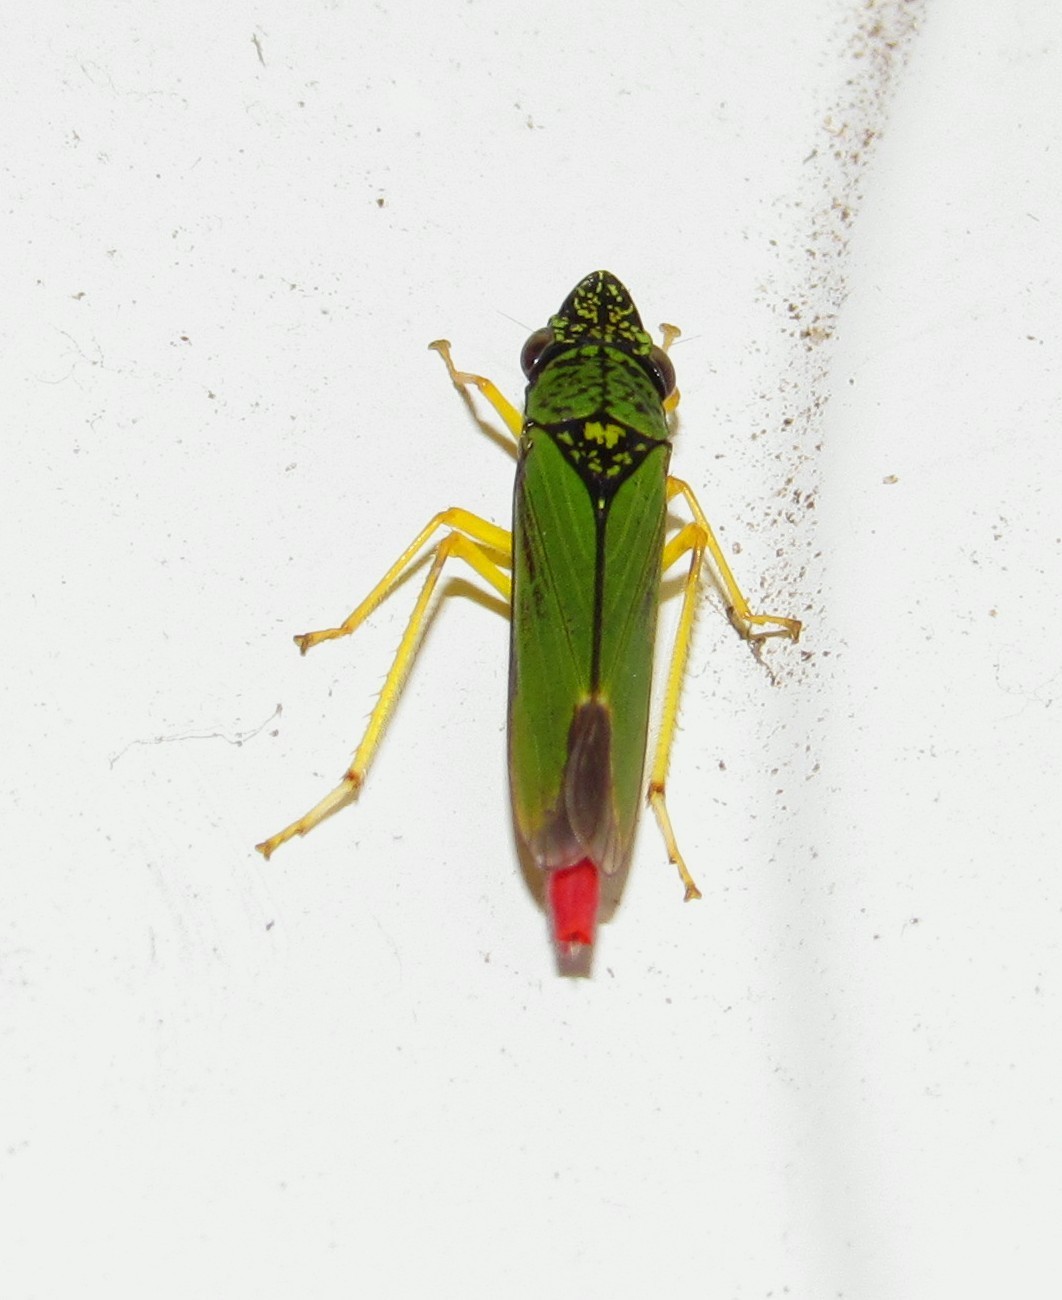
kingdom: Animalia
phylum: Arthropoda
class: Insecta
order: Hemiptera
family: Cicadellidae
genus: Acrogonia
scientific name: Acrogonia virescens
